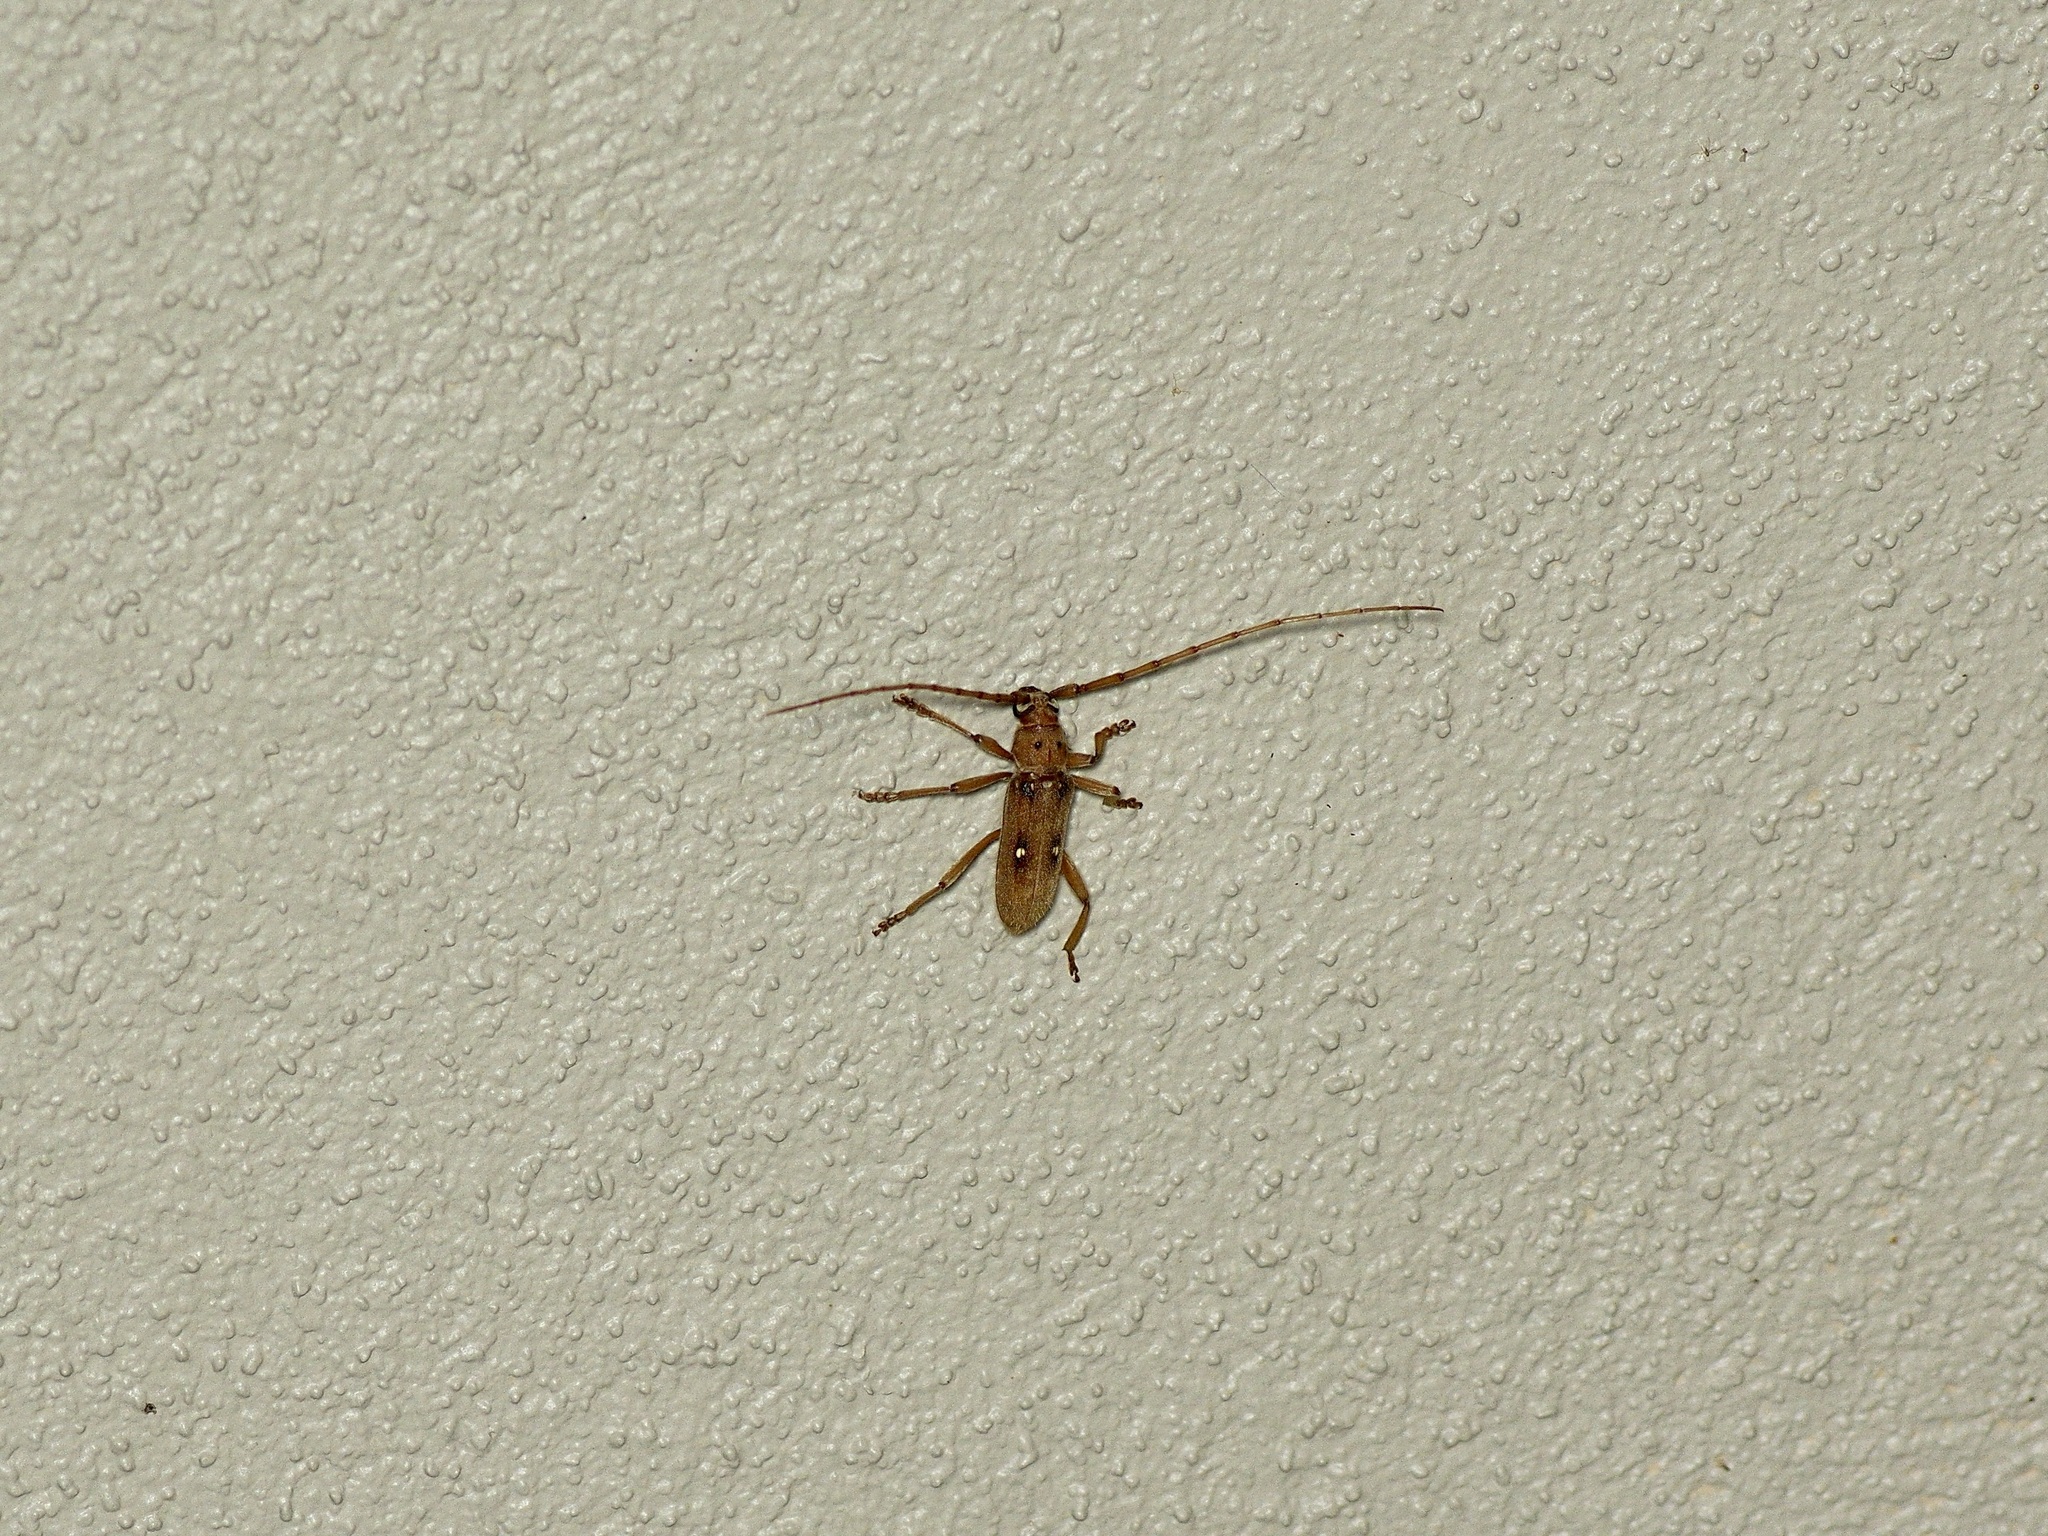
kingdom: Animalia
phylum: Arthropoda
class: Insecta
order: Coleoptera
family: Cerambycidae
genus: Eburia
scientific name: Eburia haldemani
